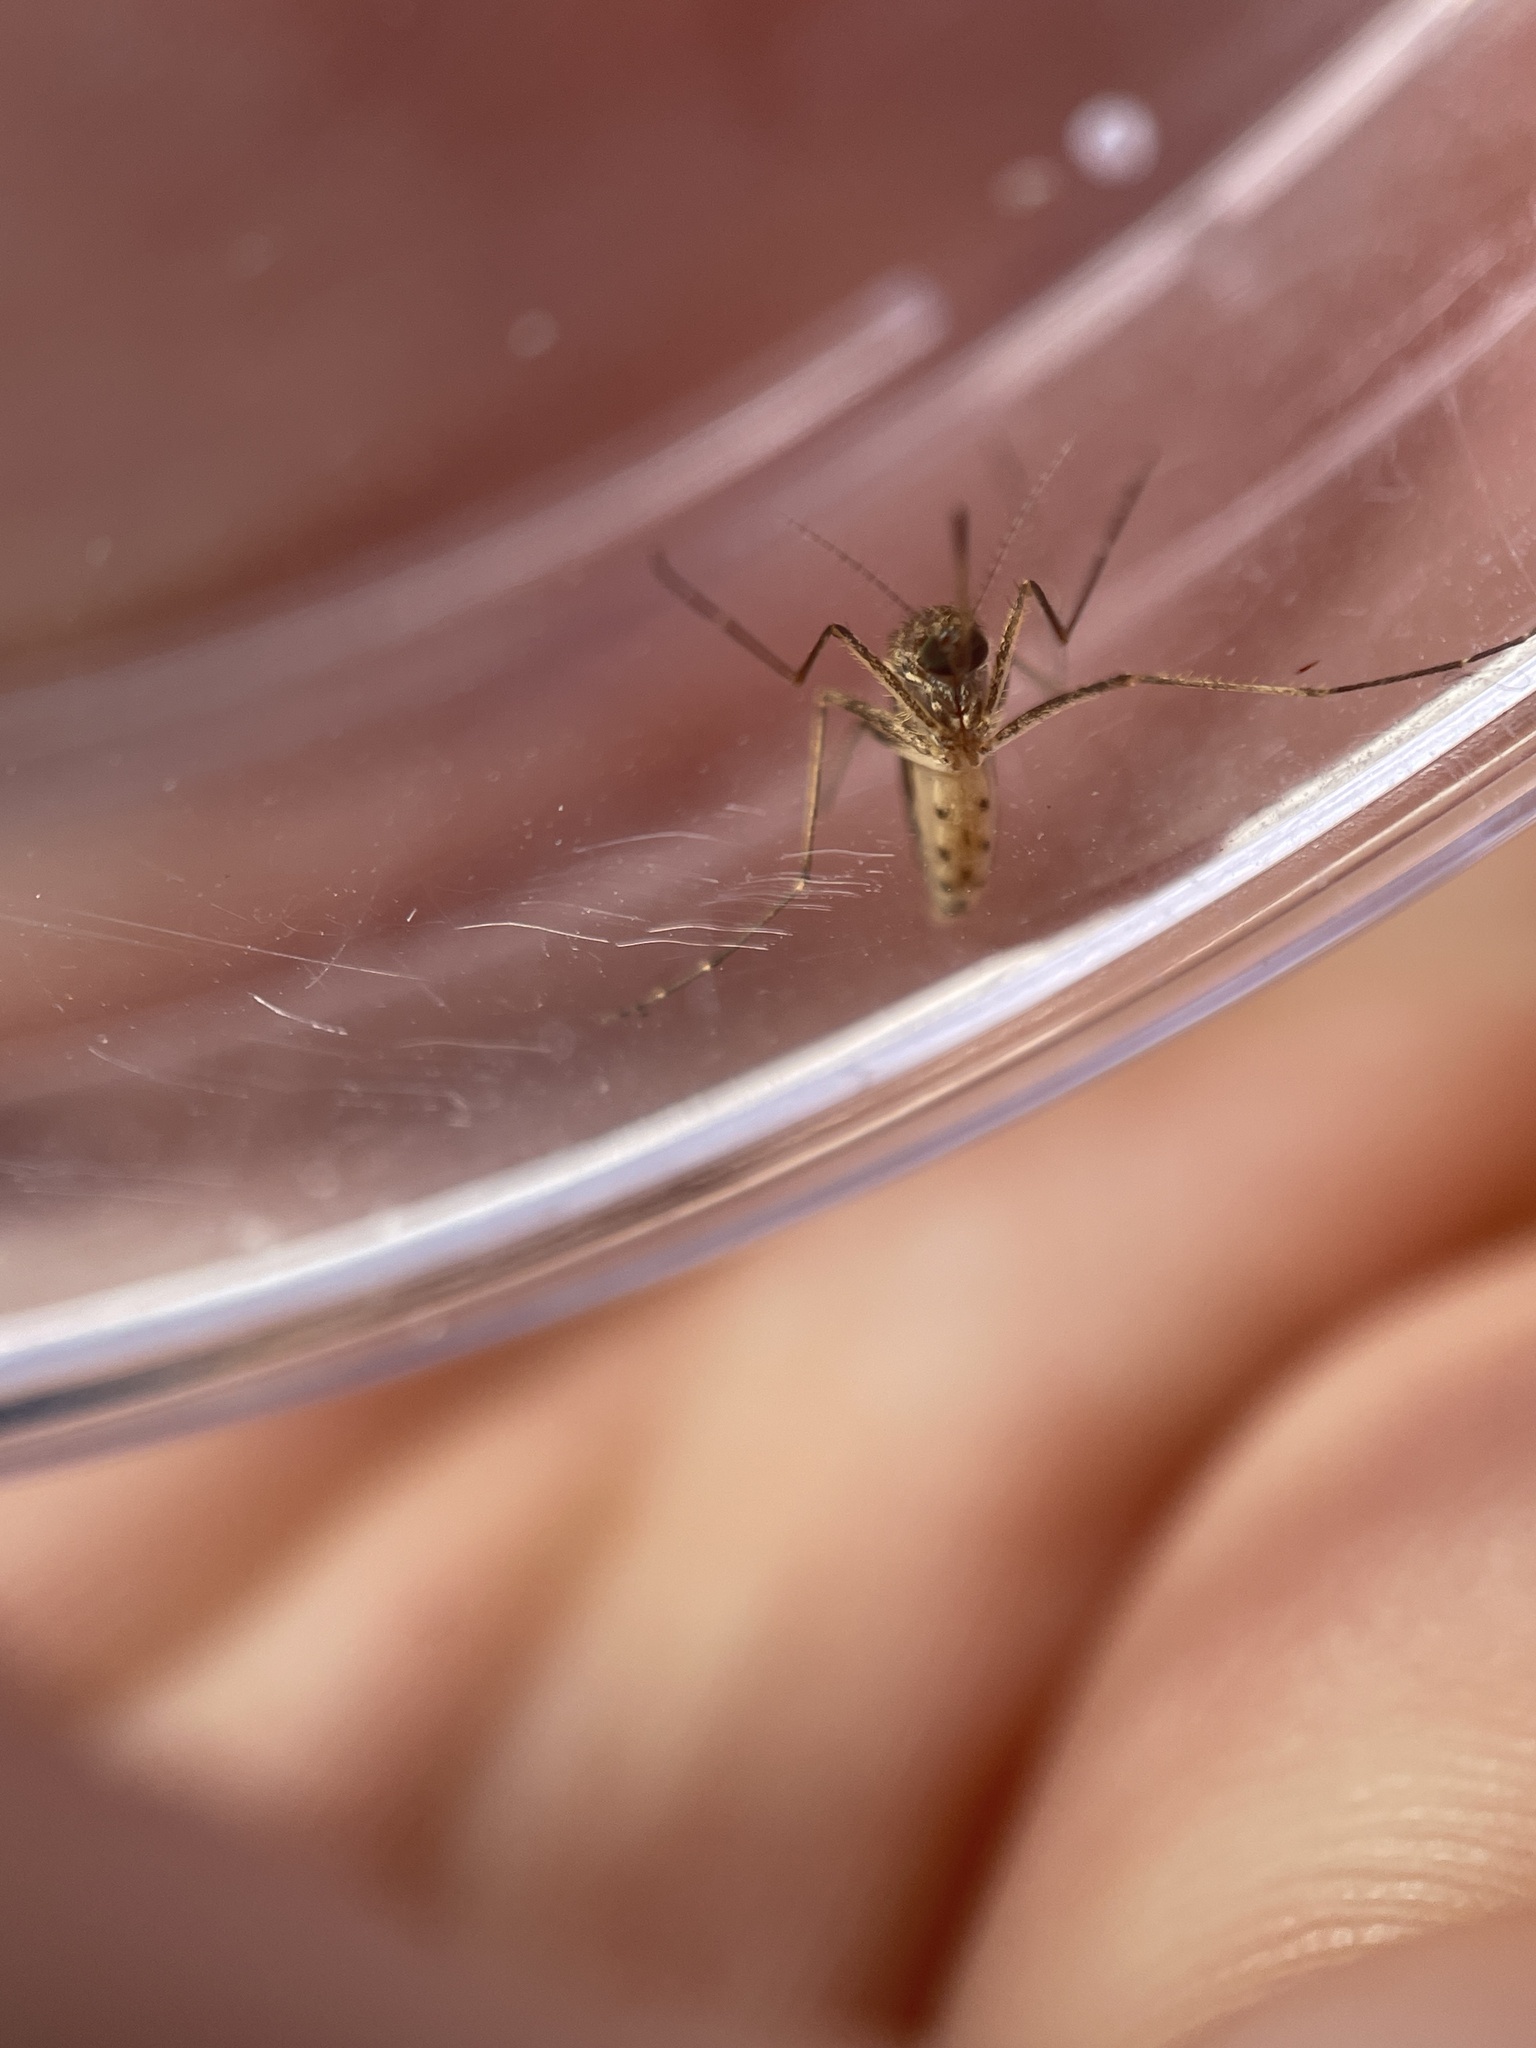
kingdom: Animalia
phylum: Arthropoda
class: Insecta
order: Diptera
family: Culicidae
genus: Aedes
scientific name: Aedes vexans
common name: Inland floodwater mosquito
